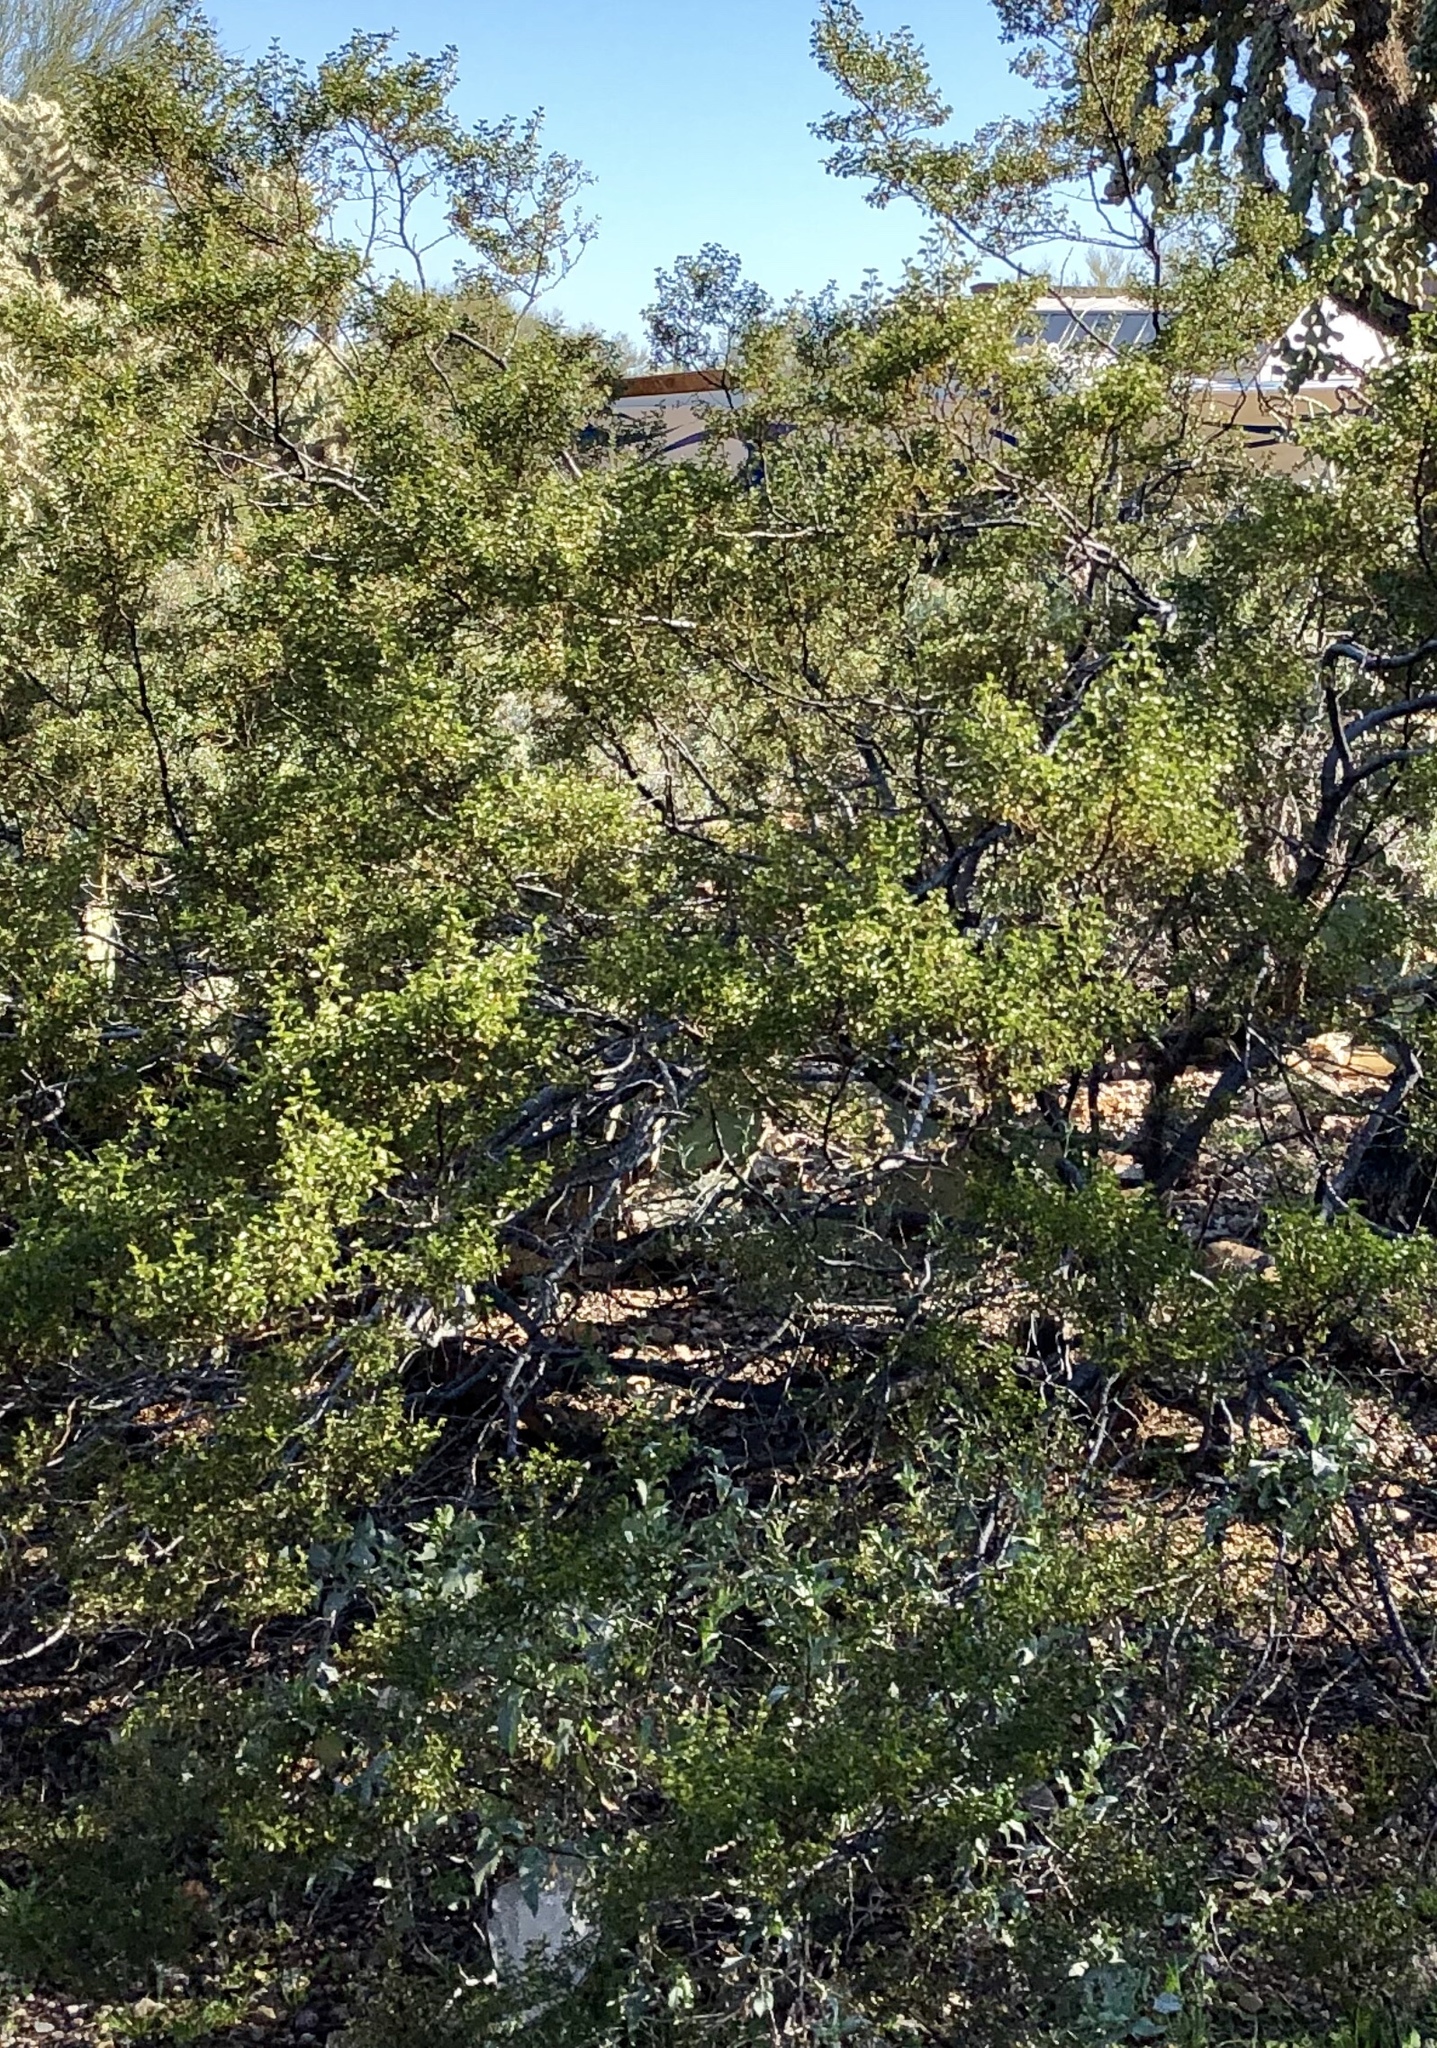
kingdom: Plantae
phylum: Tracheophyta
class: Magnoliopsida
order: Zygophyllales
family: Zygophyllaceae
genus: Larrea
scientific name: Larrea tridentata
